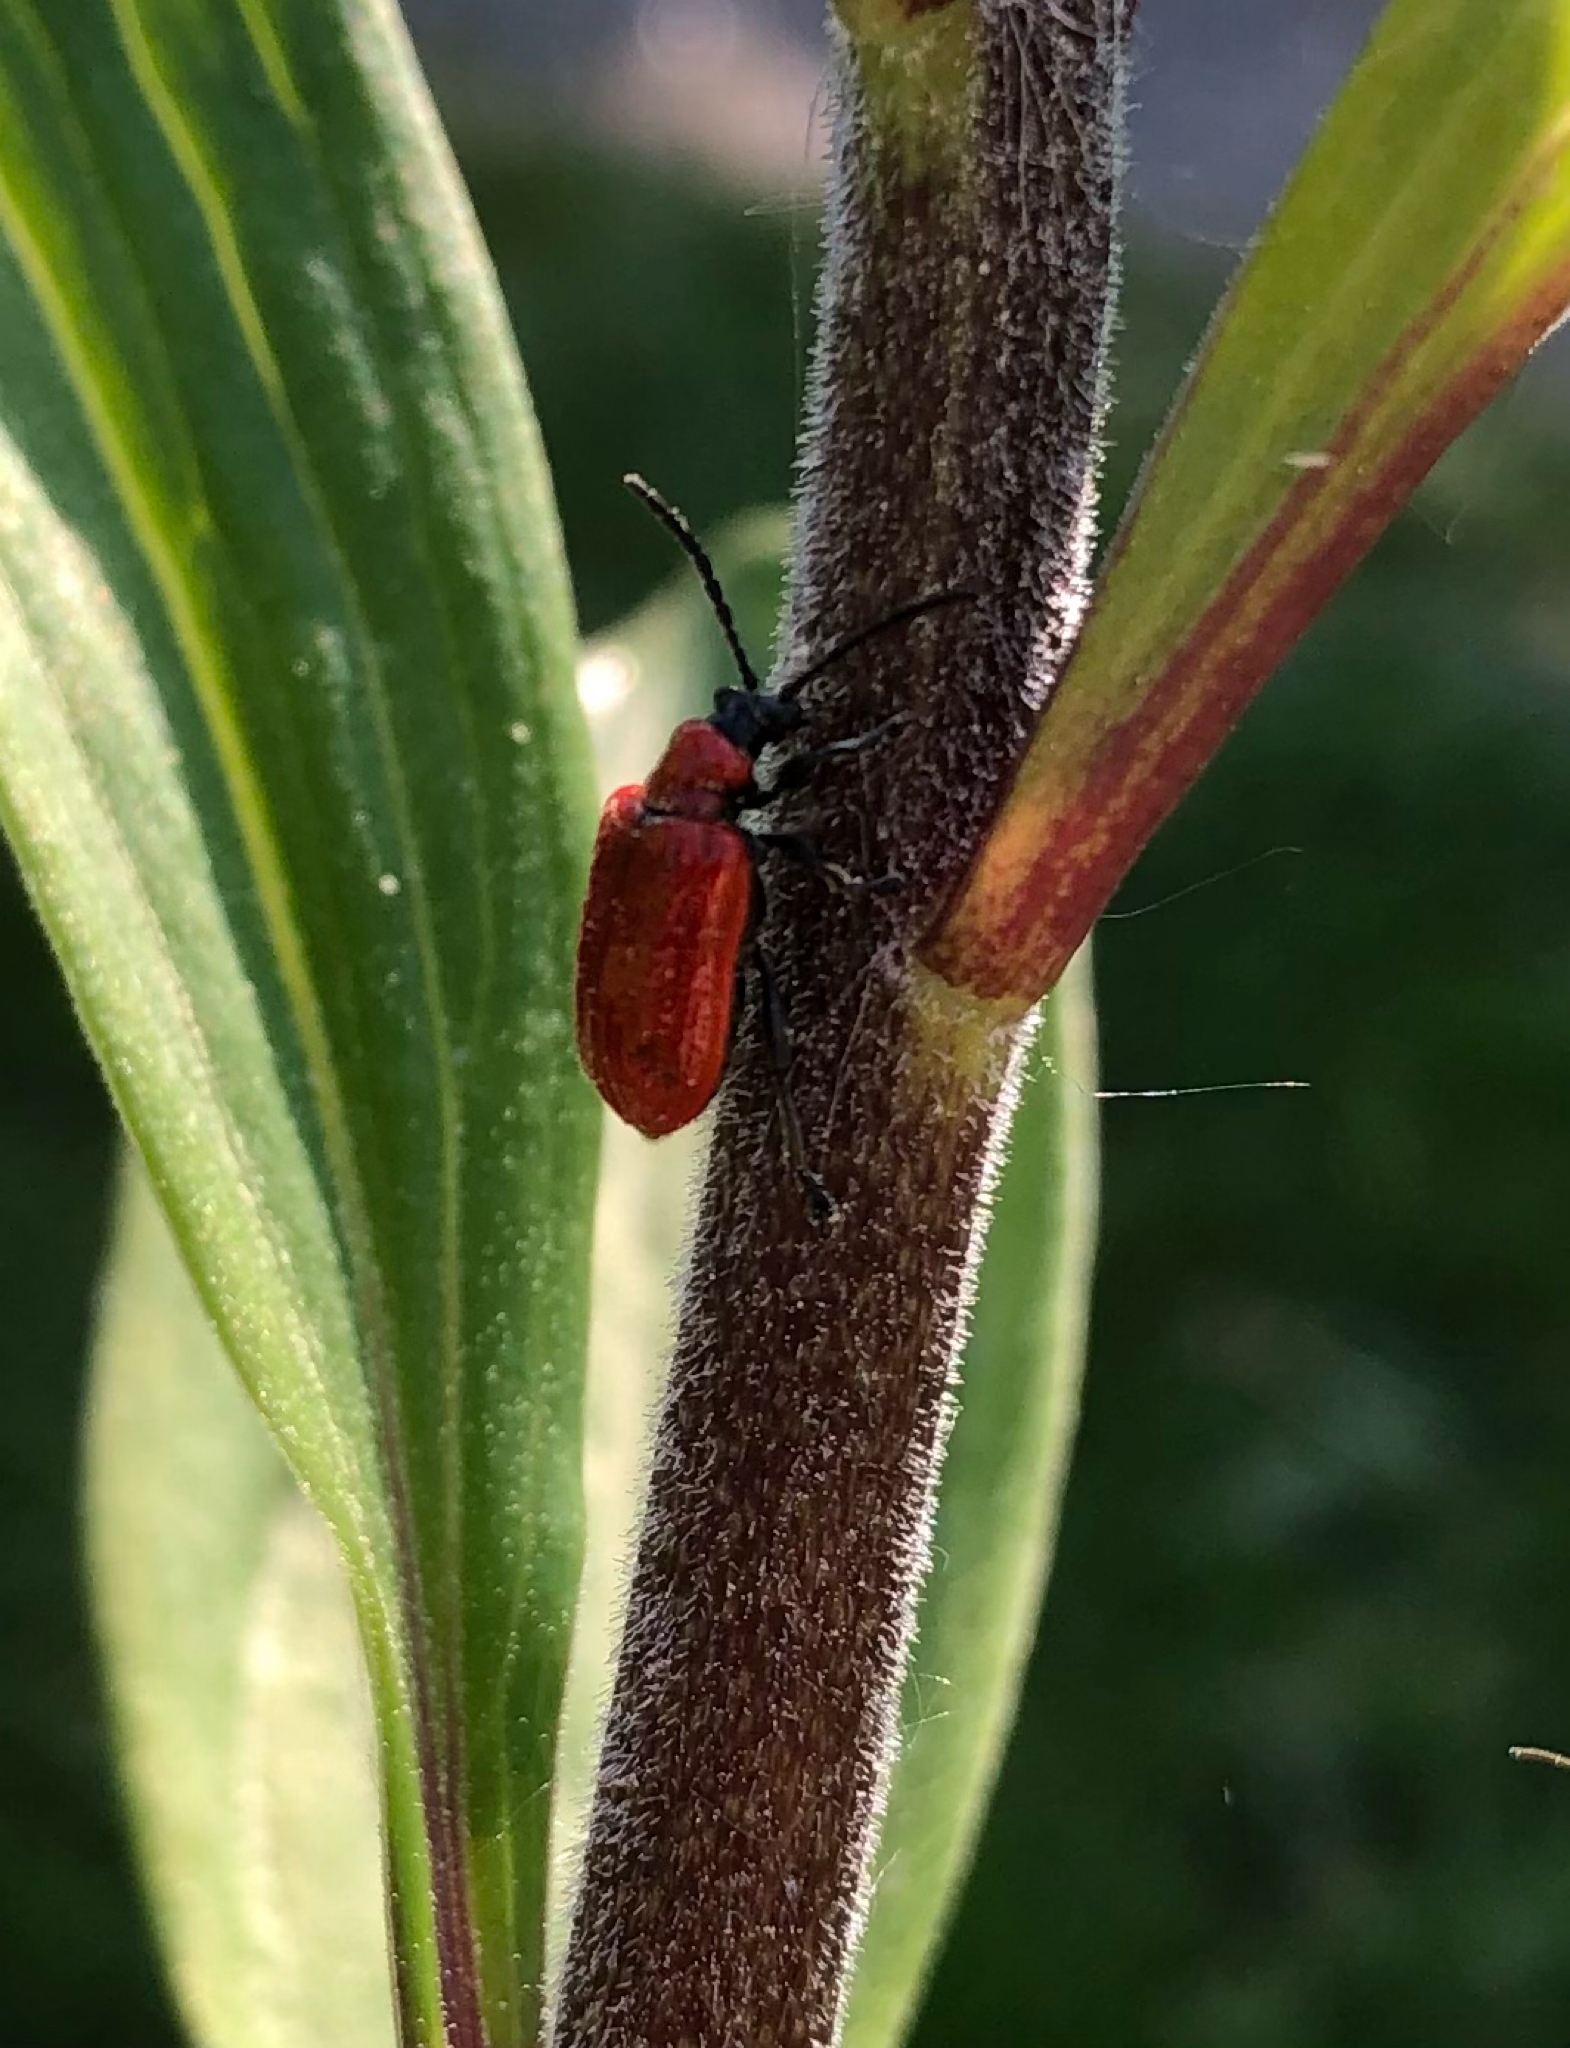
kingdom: Animalia
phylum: Arthropoda
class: Insecta
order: Coleoptera
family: Chrysomelidae
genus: Lilioceris
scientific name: Lilioceris lilii
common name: Lily beetle
